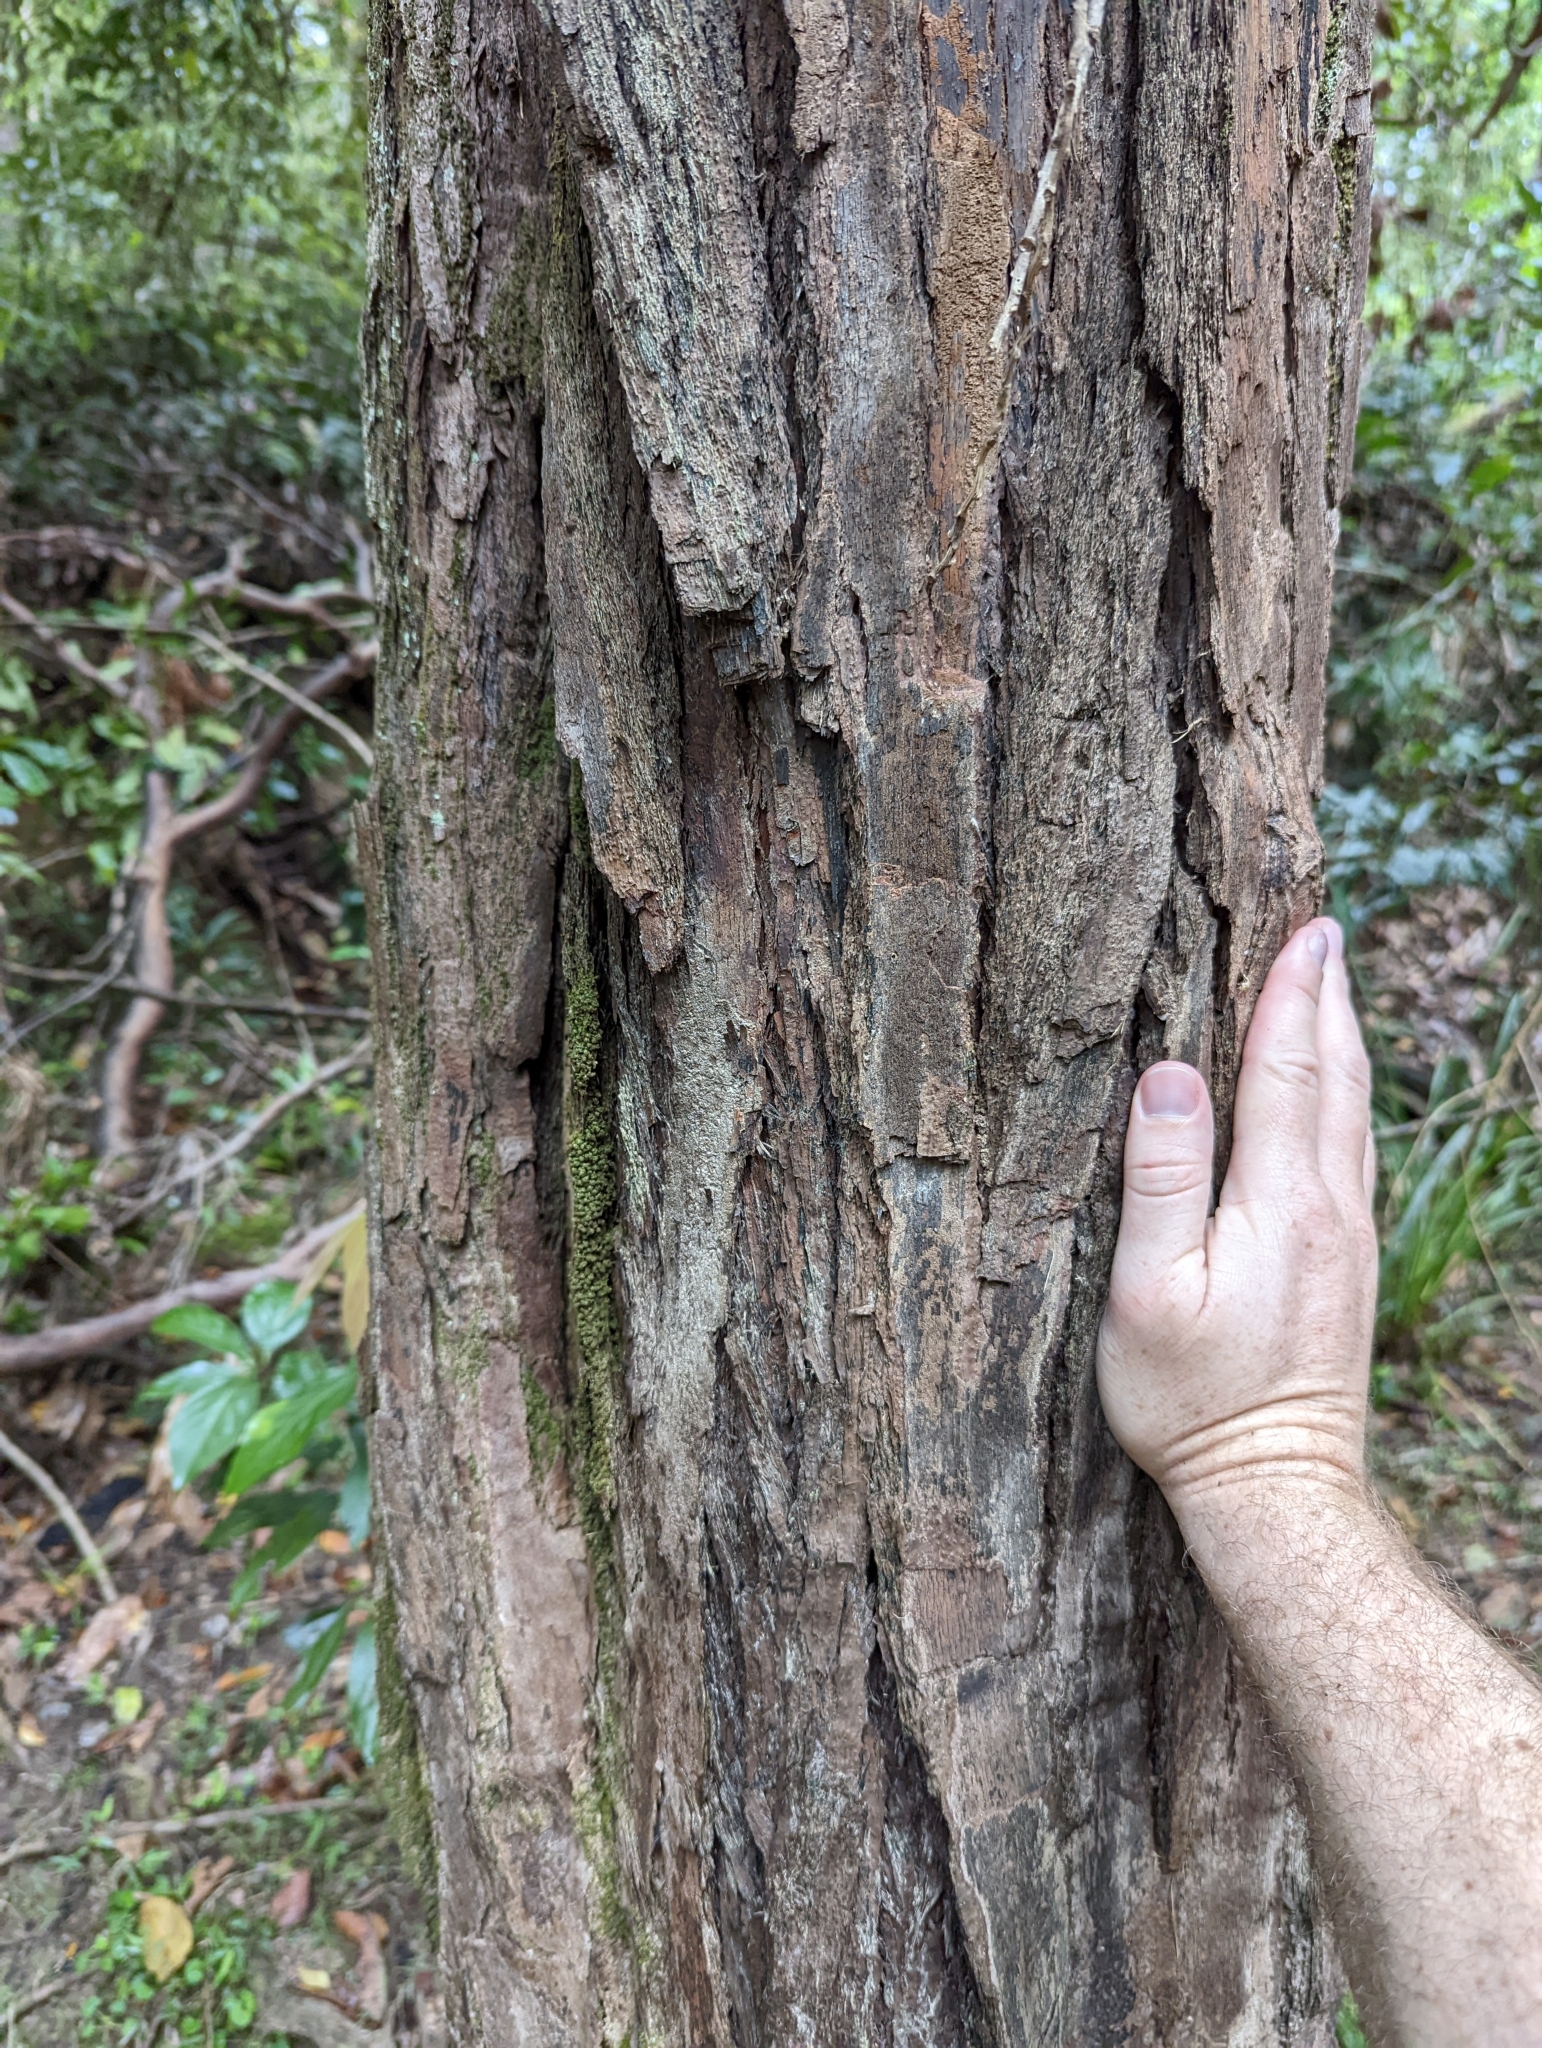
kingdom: Plantae
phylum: Tracheophyta
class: Magnoliopsida
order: Myrtales
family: Myrtaceae
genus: Rhodamnia
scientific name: Rhodamnia rubescens
